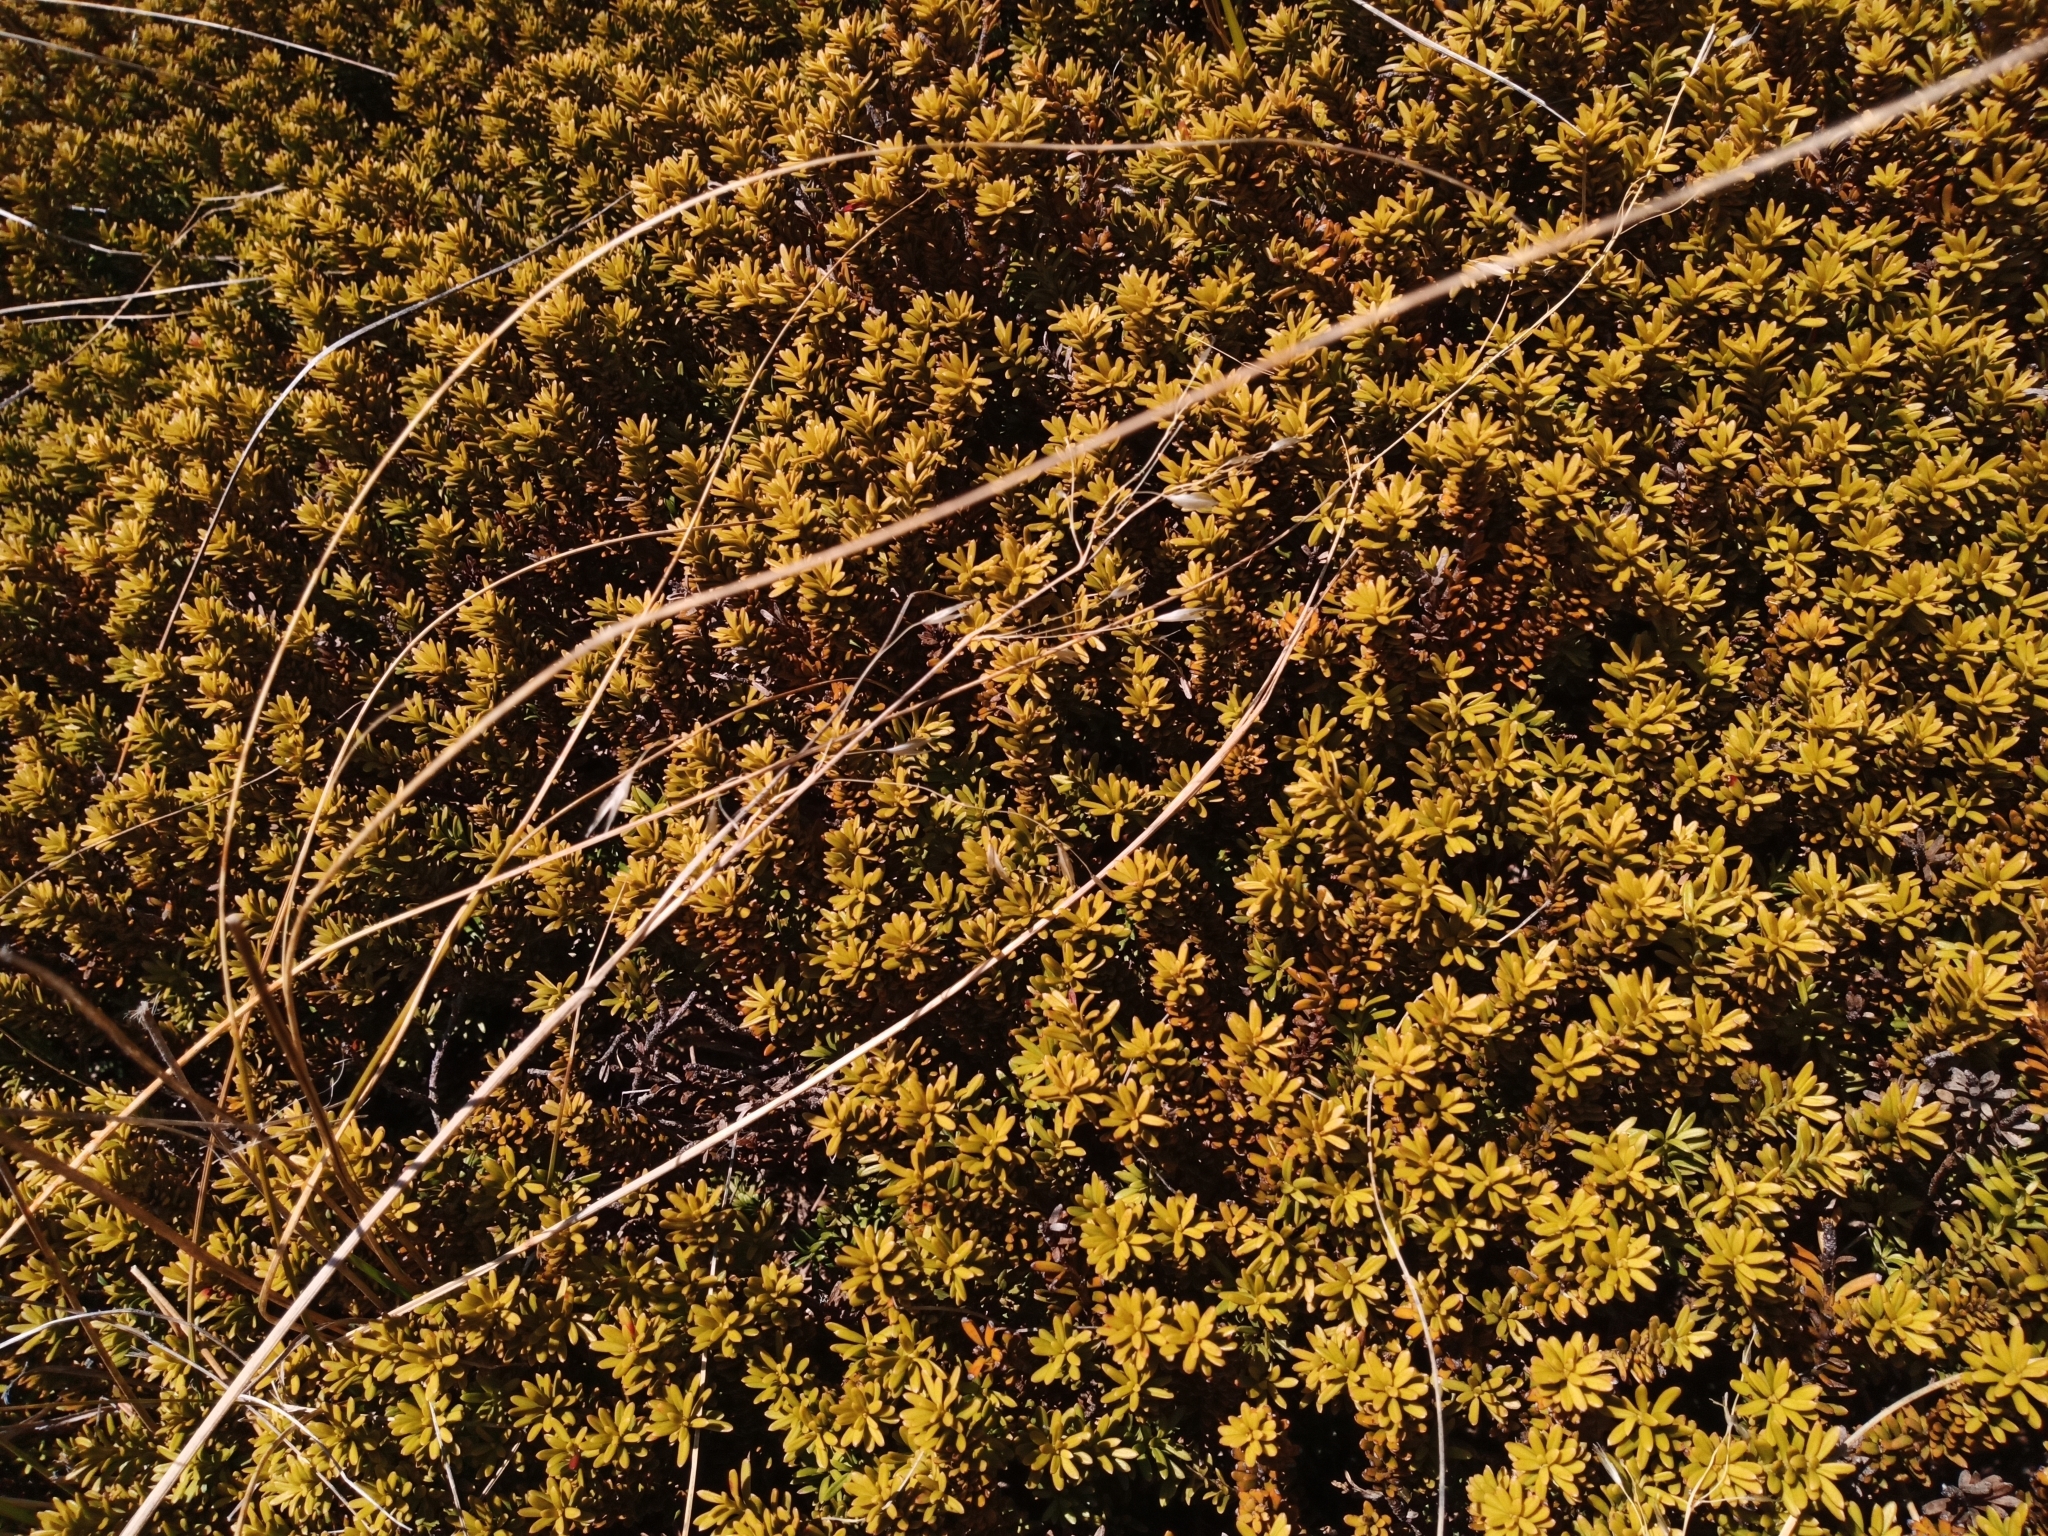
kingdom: Plantae
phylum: Tracheophyta
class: Pinopsida
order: Pinales
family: Podocarpaceae
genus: Podocarpus
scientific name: Podocarpus nivalis
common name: Alpine totara
